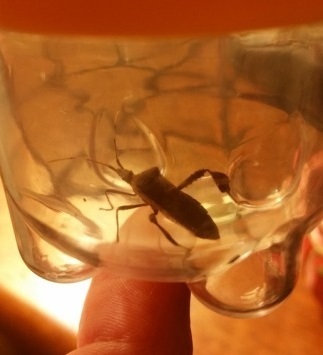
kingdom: Animalia
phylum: Arthropoda
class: Insecta
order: Hemiptera
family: Coreidae
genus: Leptoglossus
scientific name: Leptoglossus oppositus
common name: Northern leaf-footed bug
